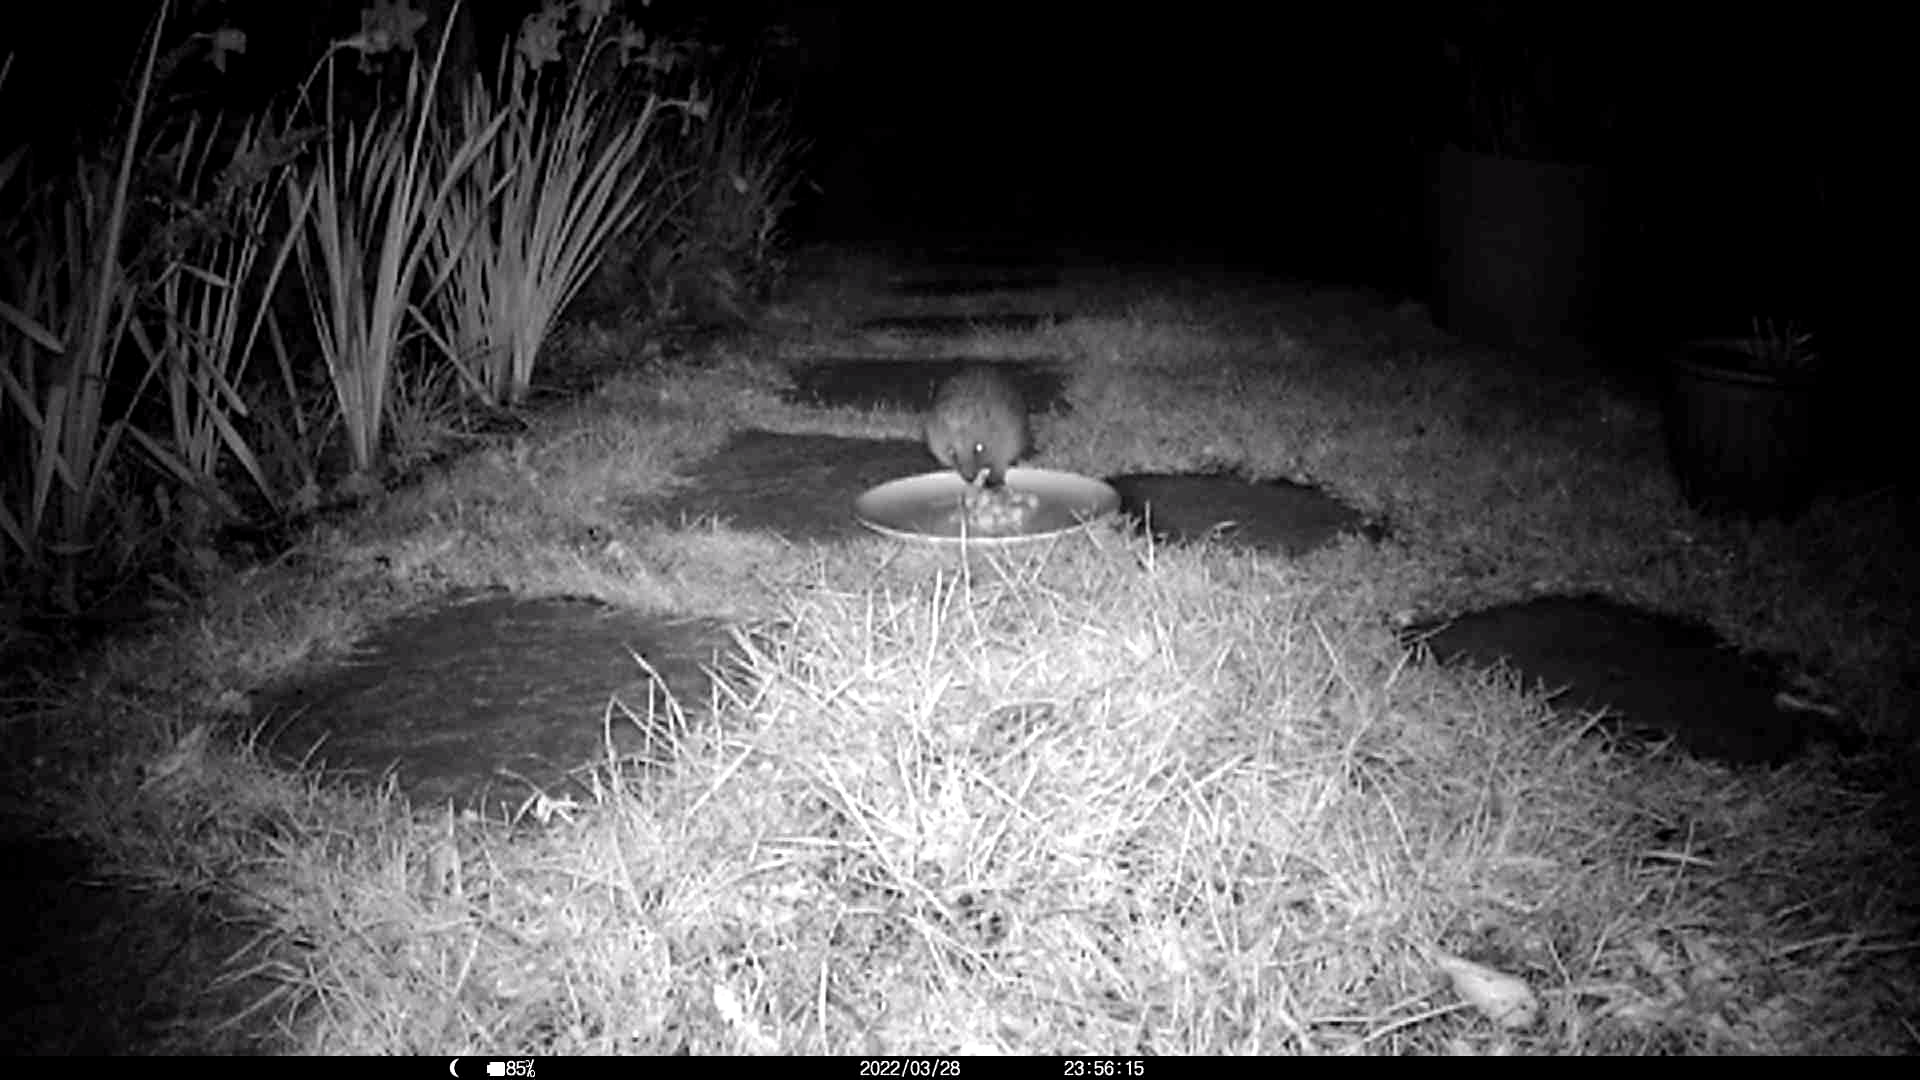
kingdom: Animalia
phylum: Chordata
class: Mammalia
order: Erinaceomorpha
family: Erinaceidae
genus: Erinaceus
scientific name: Erinaceus europaeus
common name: West european hedgehog
